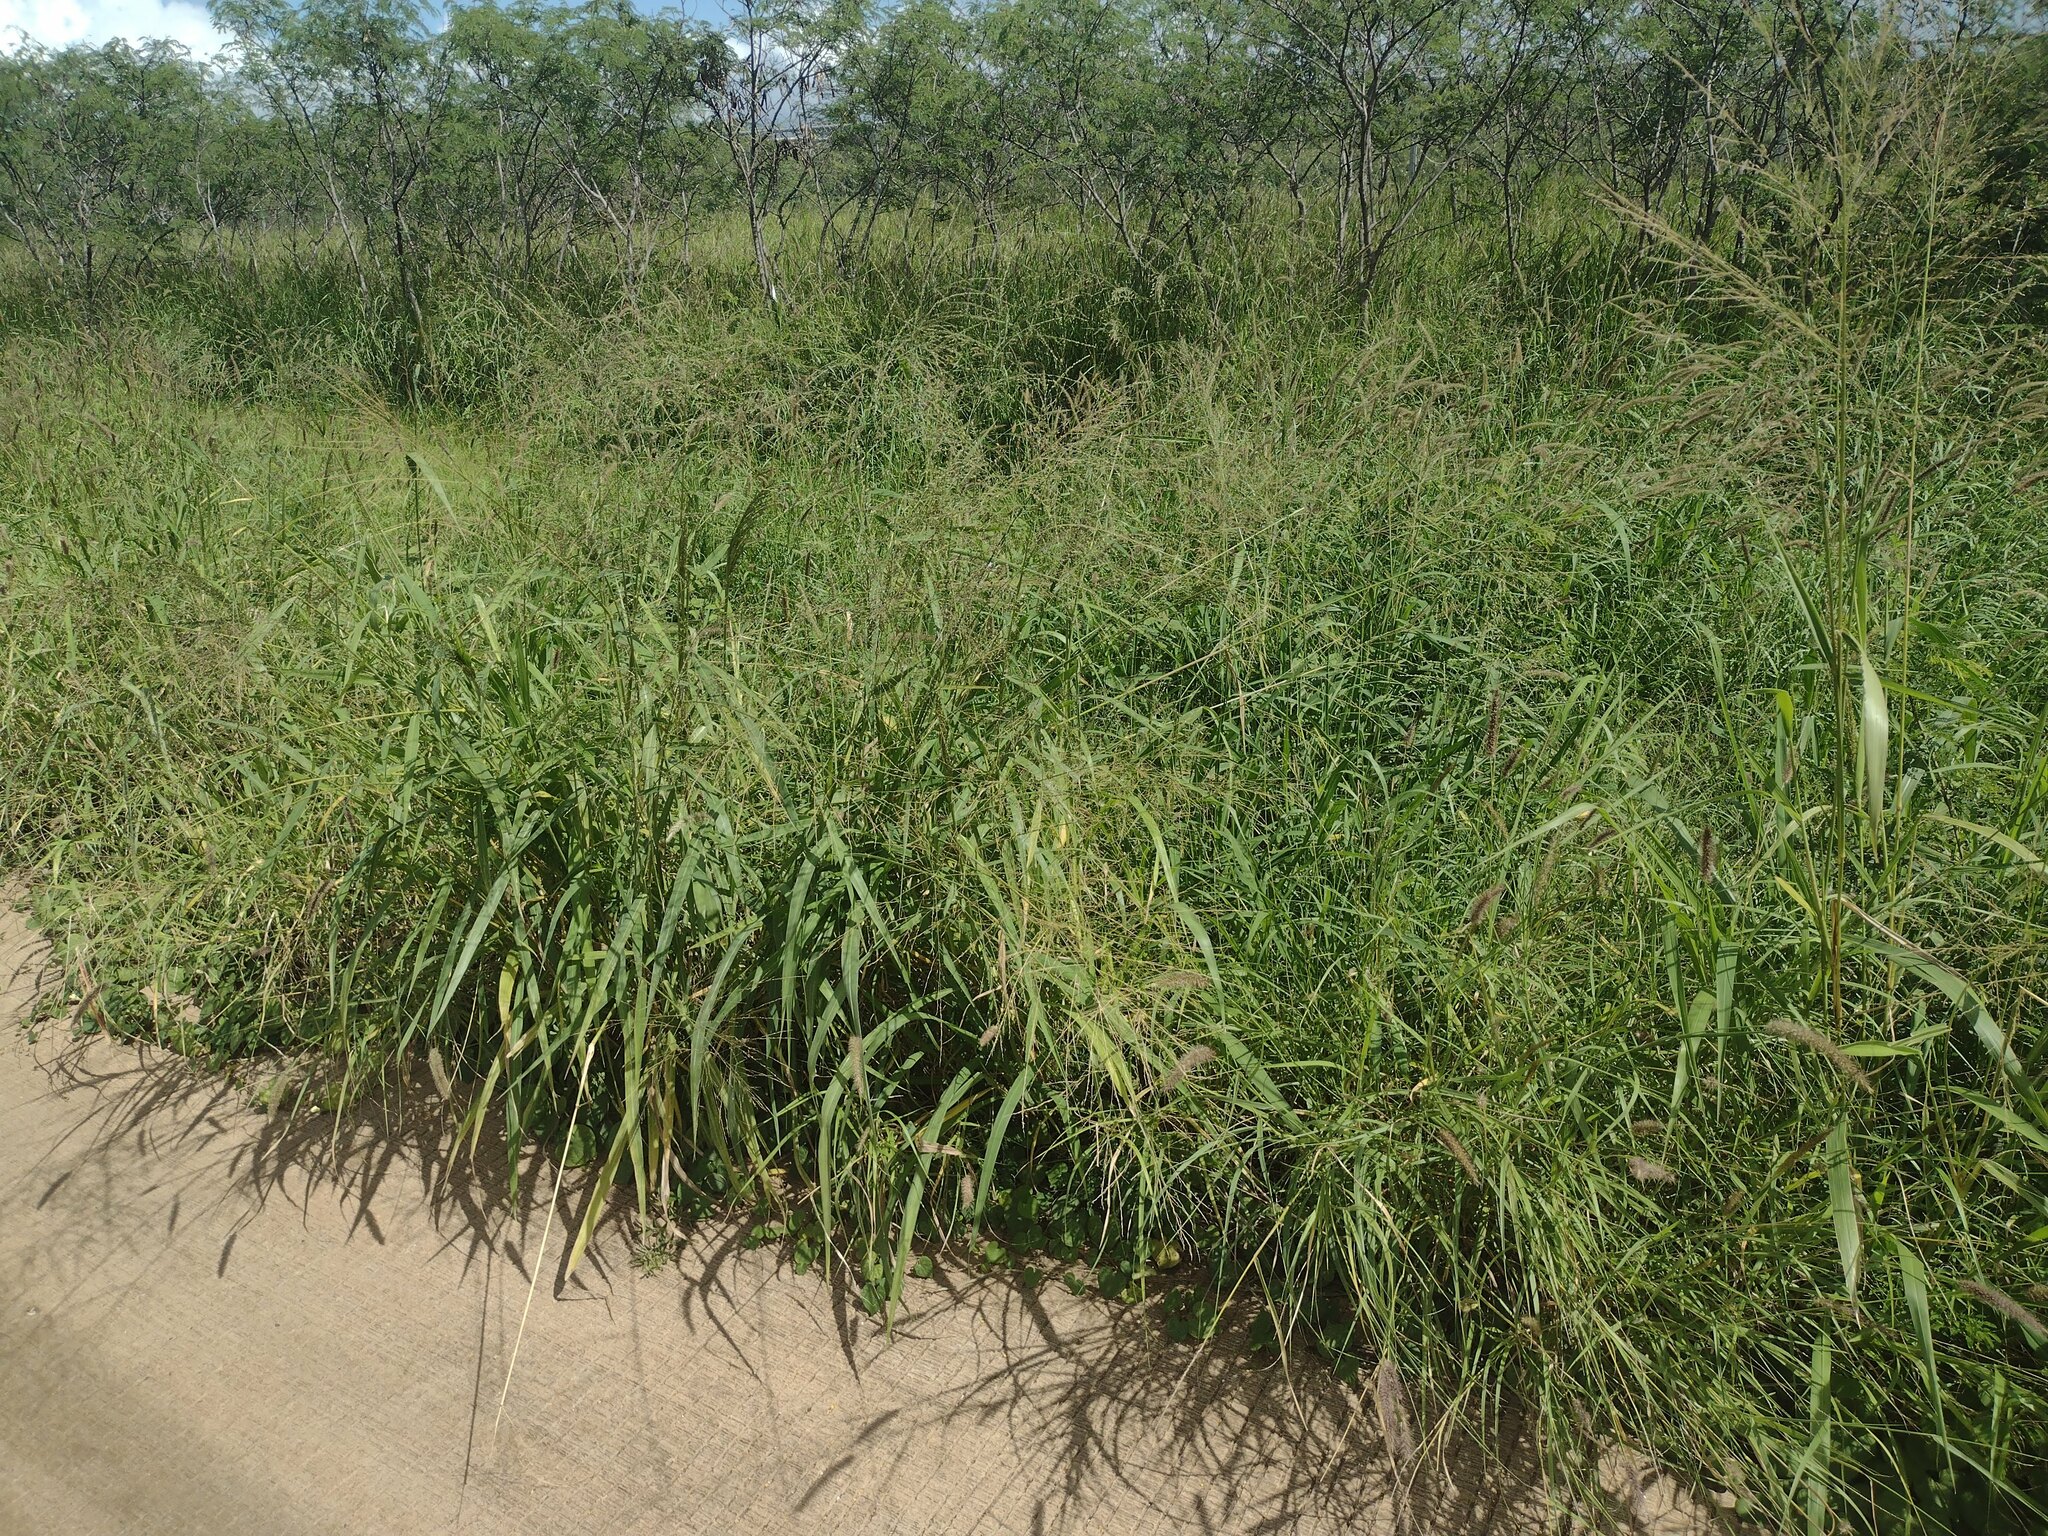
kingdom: Plantae
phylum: Tracheophyta
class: Liliopsida
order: Poales
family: Poaceae
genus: Megathyrsus
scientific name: Megathyrsus maximus
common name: Guineagrass
